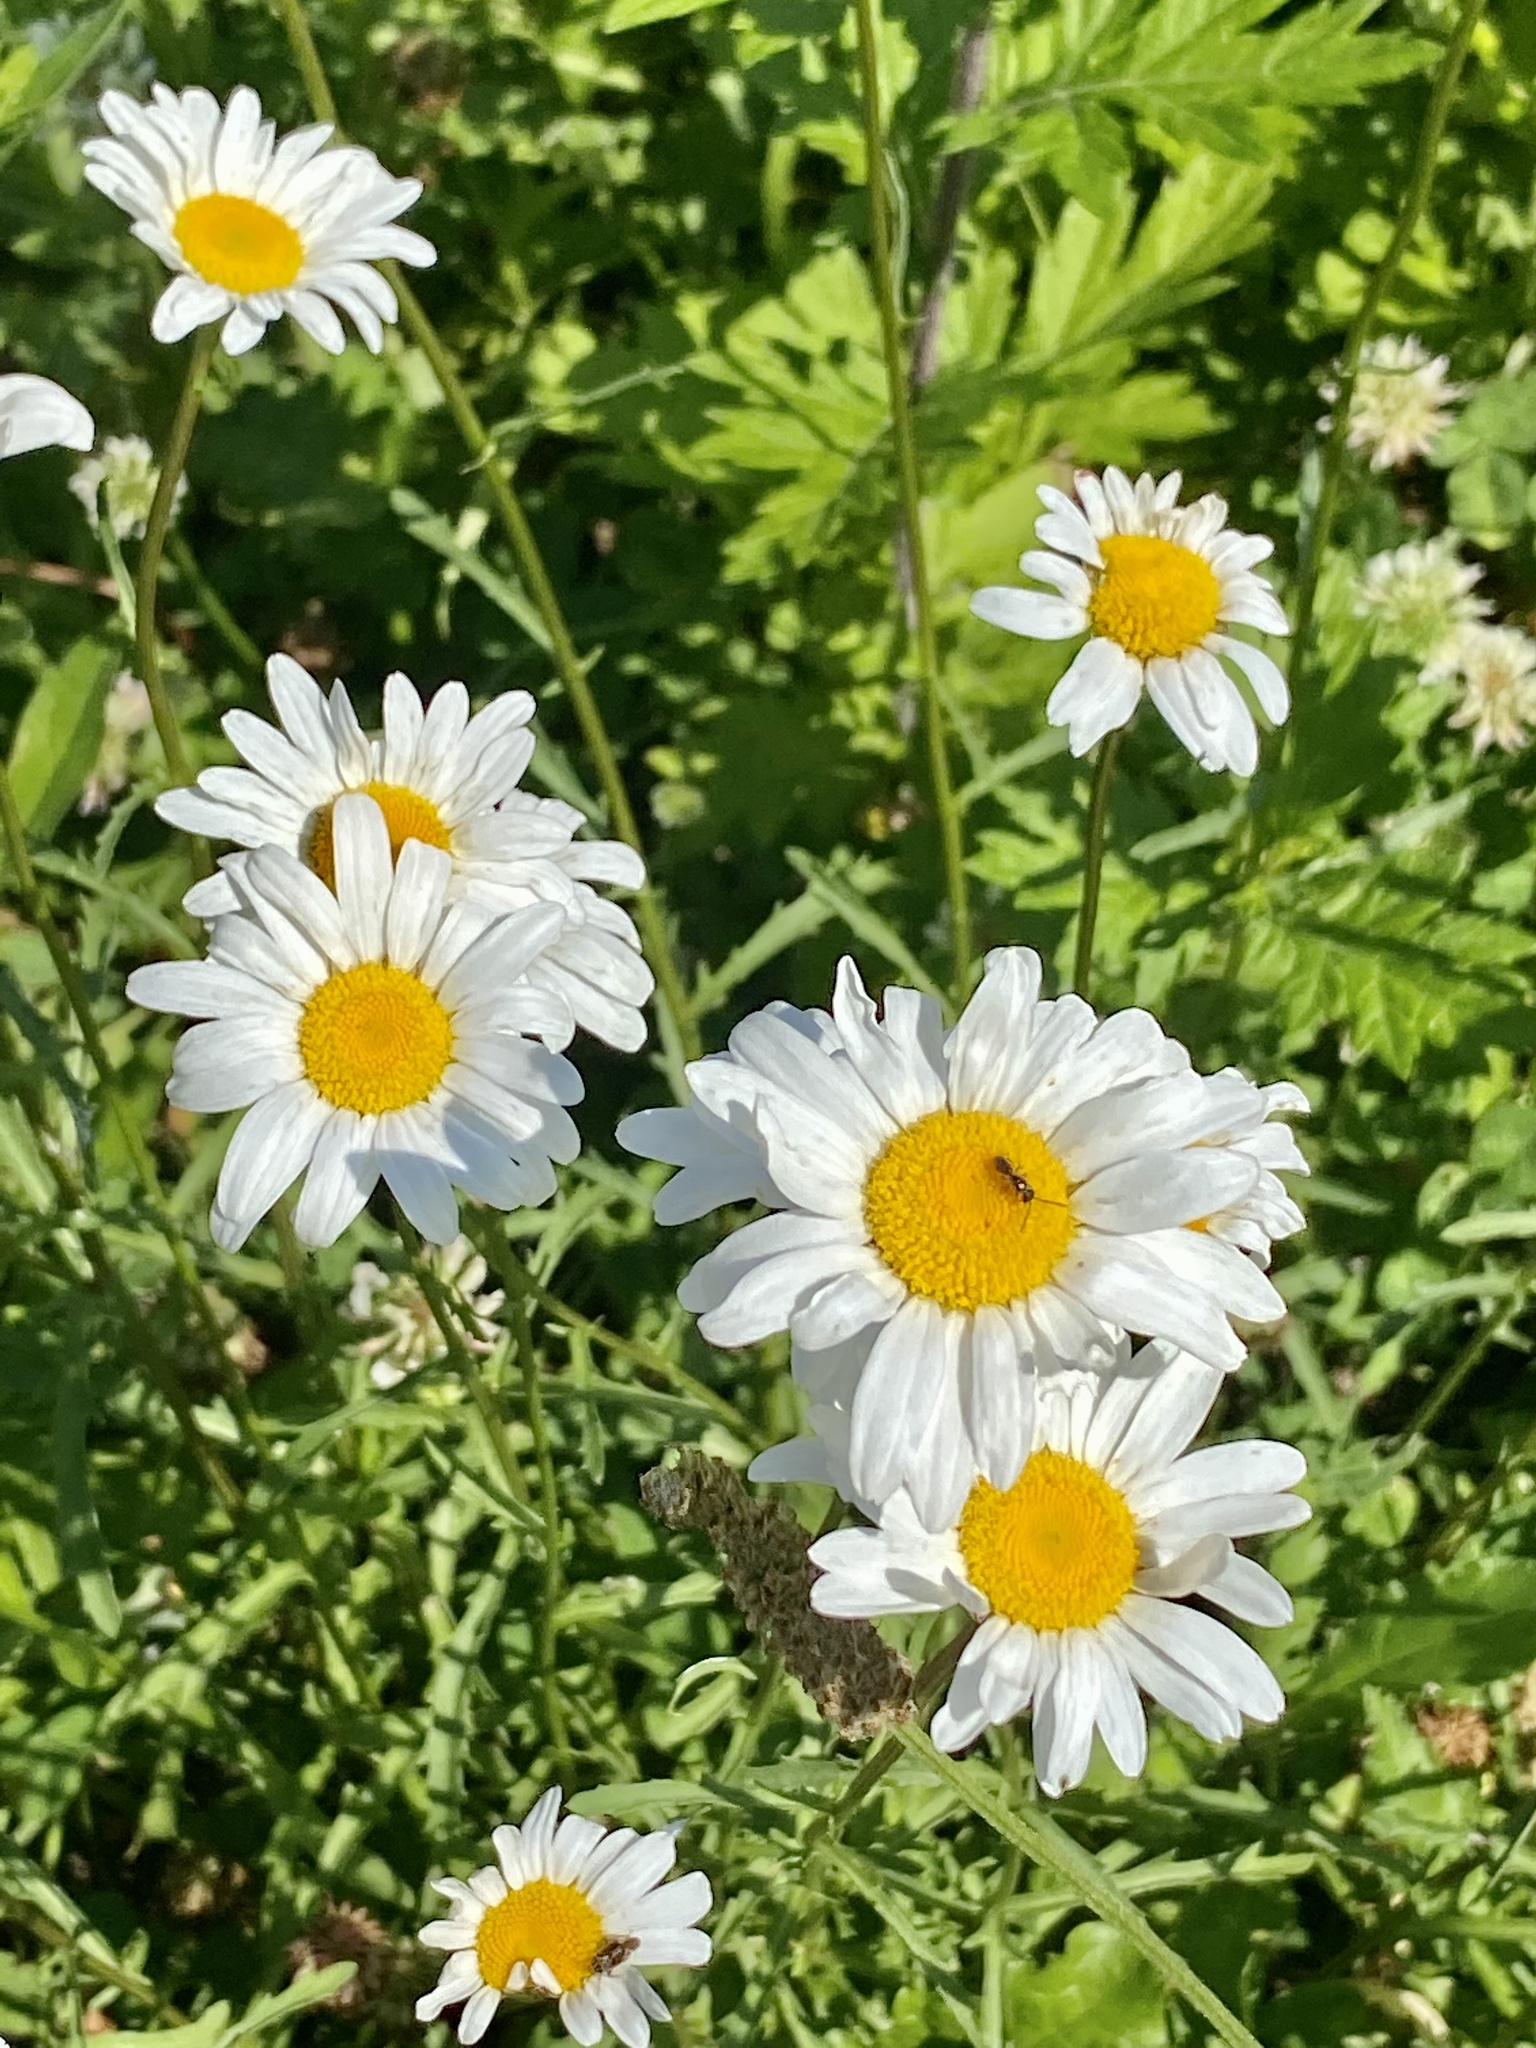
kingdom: Plantae
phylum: Tracheophyta
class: Magnoliopsida
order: Asterales
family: Asteraceae
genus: Leucanthemum
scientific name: Leucanthemum vulgare
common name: Oxeye daisy
